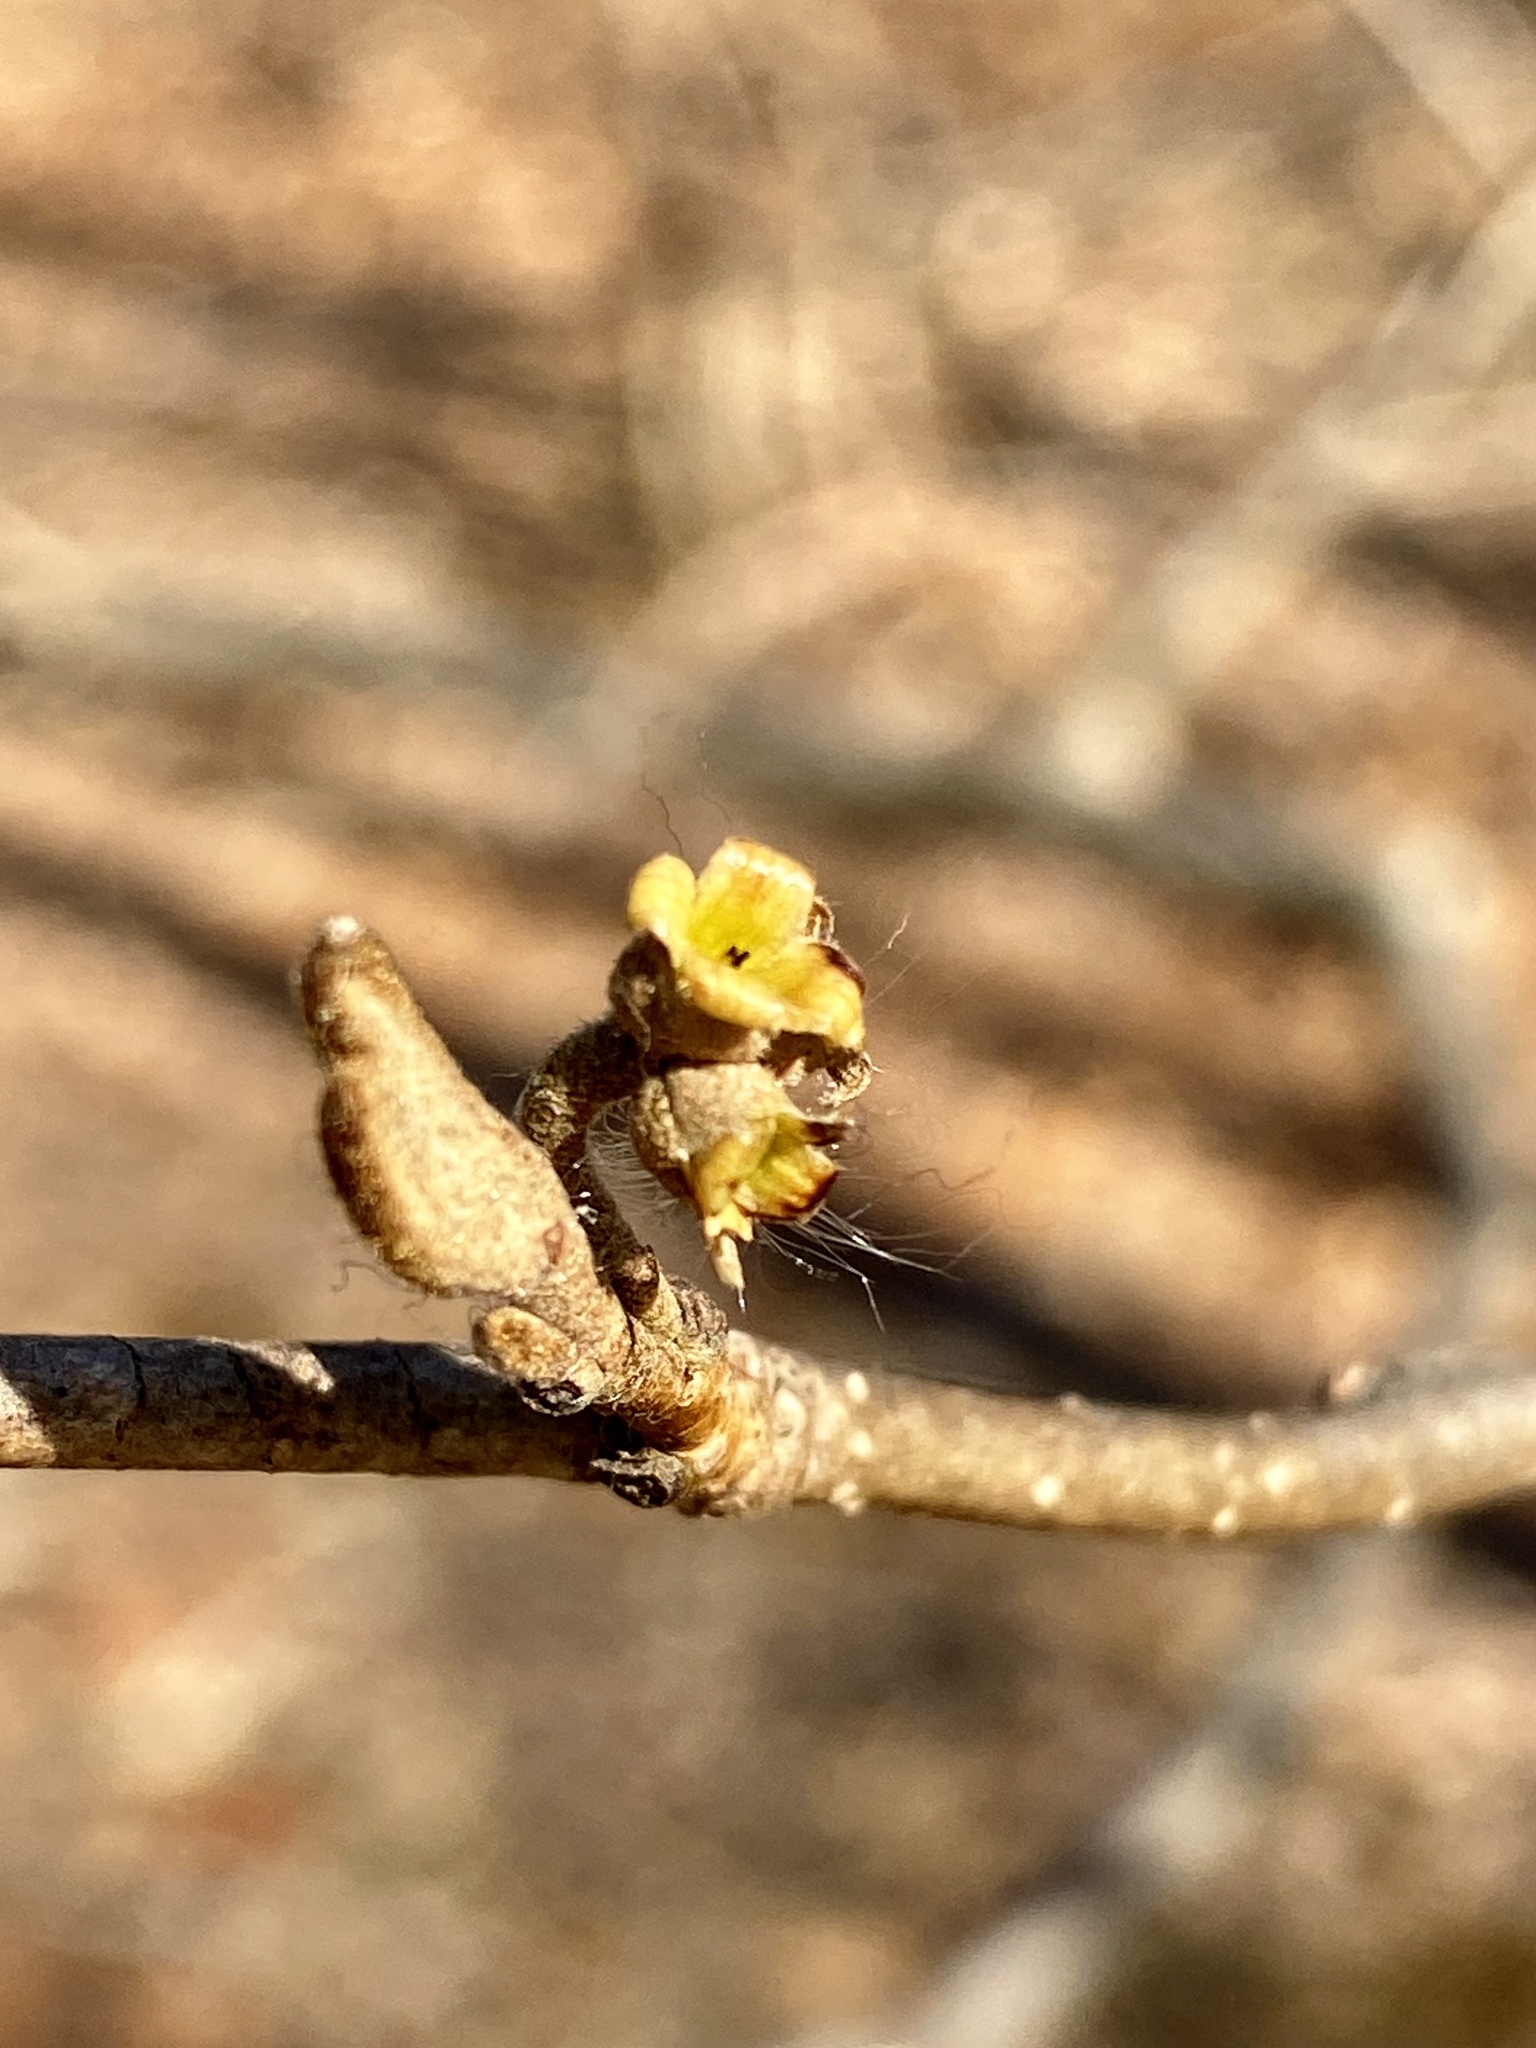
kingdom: Plantae
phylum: Tracheophyta
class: Magnoliopsida
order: Saxifragales
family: Hamamelidaceae
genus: Hamamelis
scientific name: Hamamelis virginiana
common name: Witch-hazel
